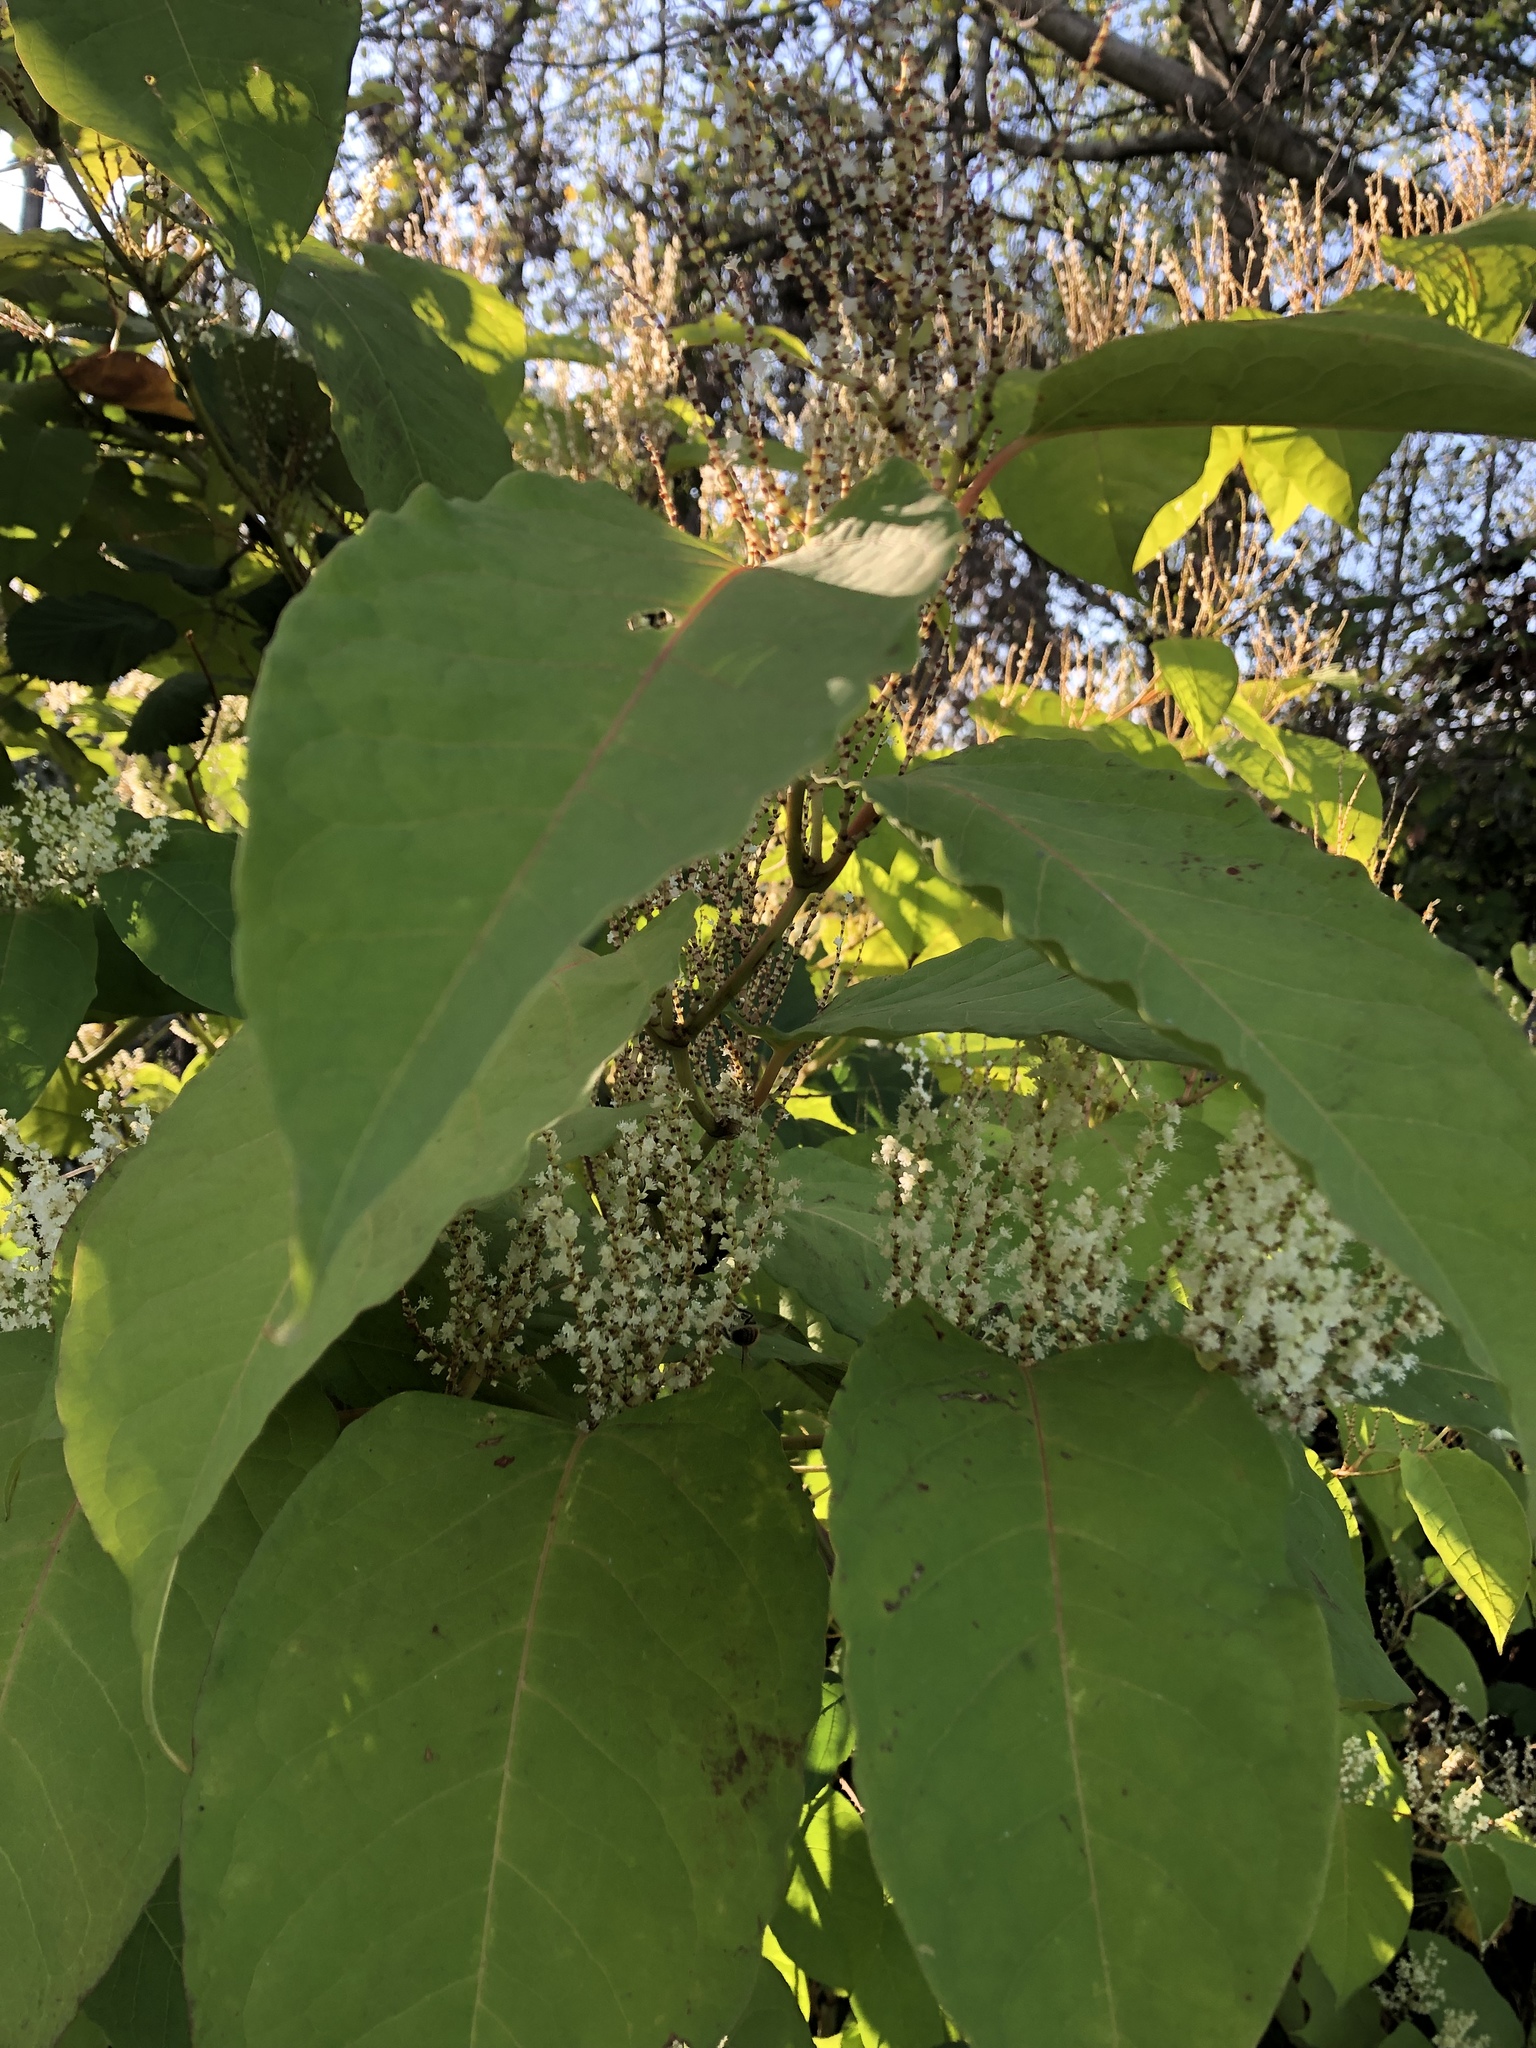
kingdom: Plantae
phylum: Tracheophyta
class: Magnoliopsida
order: Caryophyllales
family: Polygonaceae
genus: Reynoutria
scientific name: Reynoutria bohemica
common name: Bohemian knotweed
